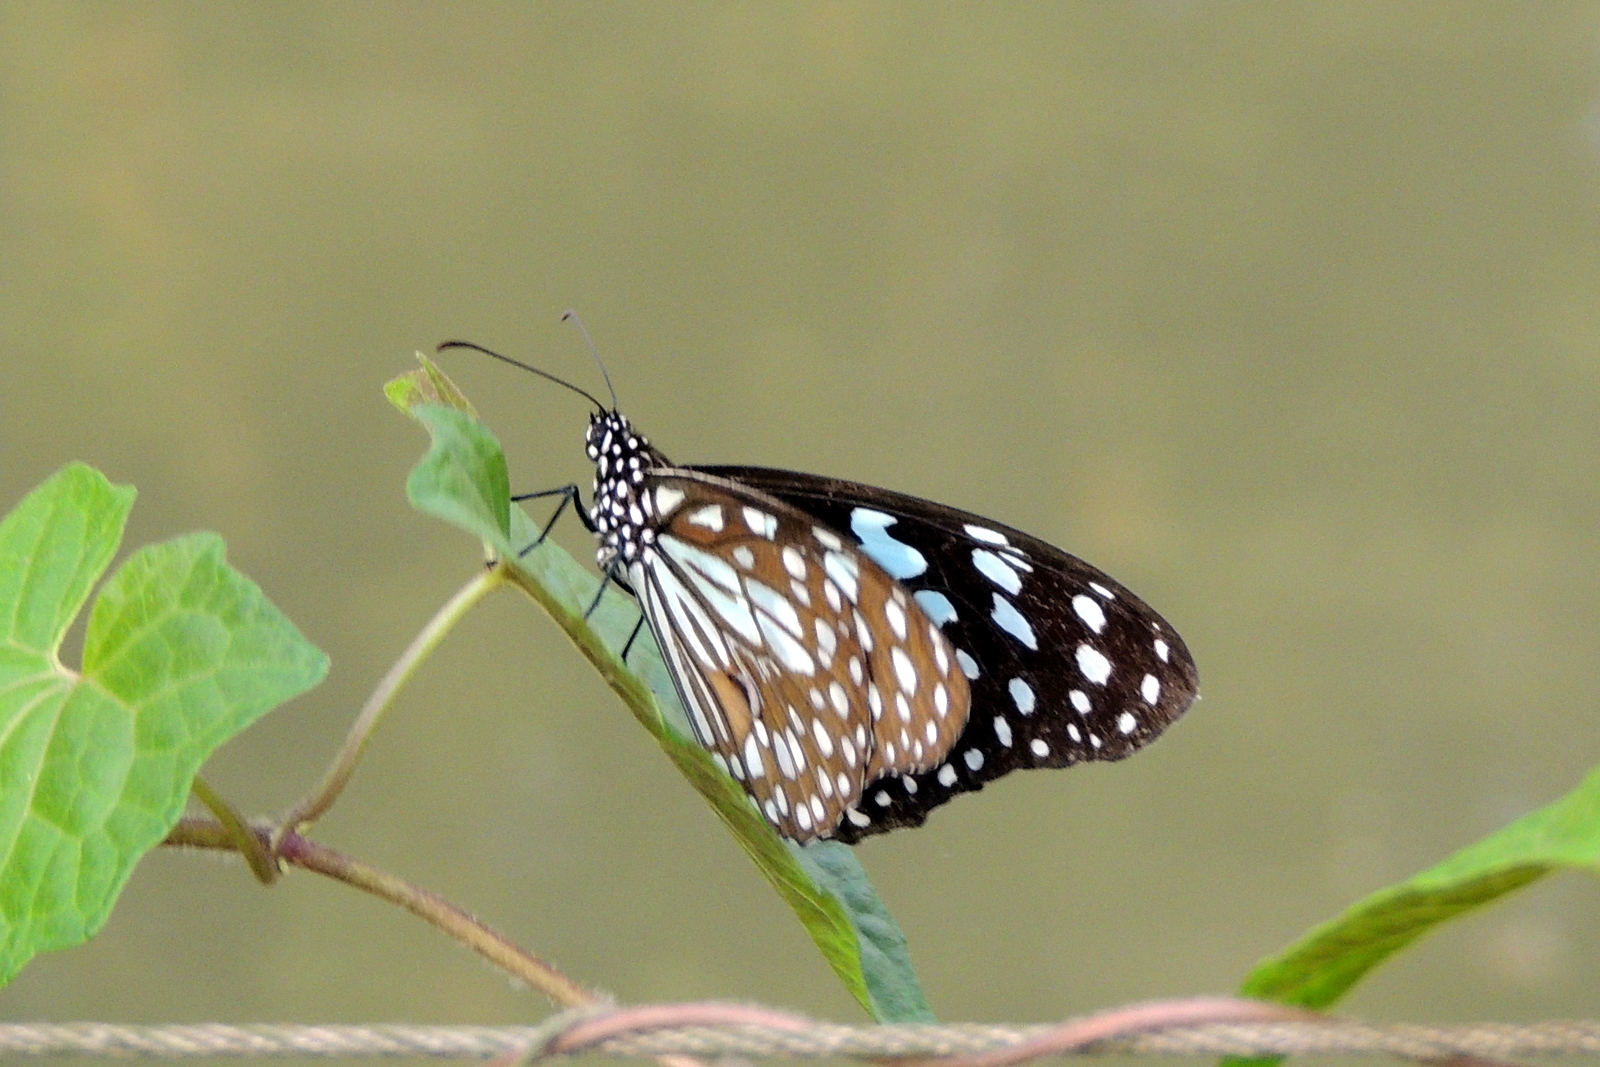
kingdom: Animalia
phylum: Arthropoda
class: Insecta
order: Lepidoptera
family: Nymphalidae
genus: Tirumala
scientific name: Tirumala limniace
